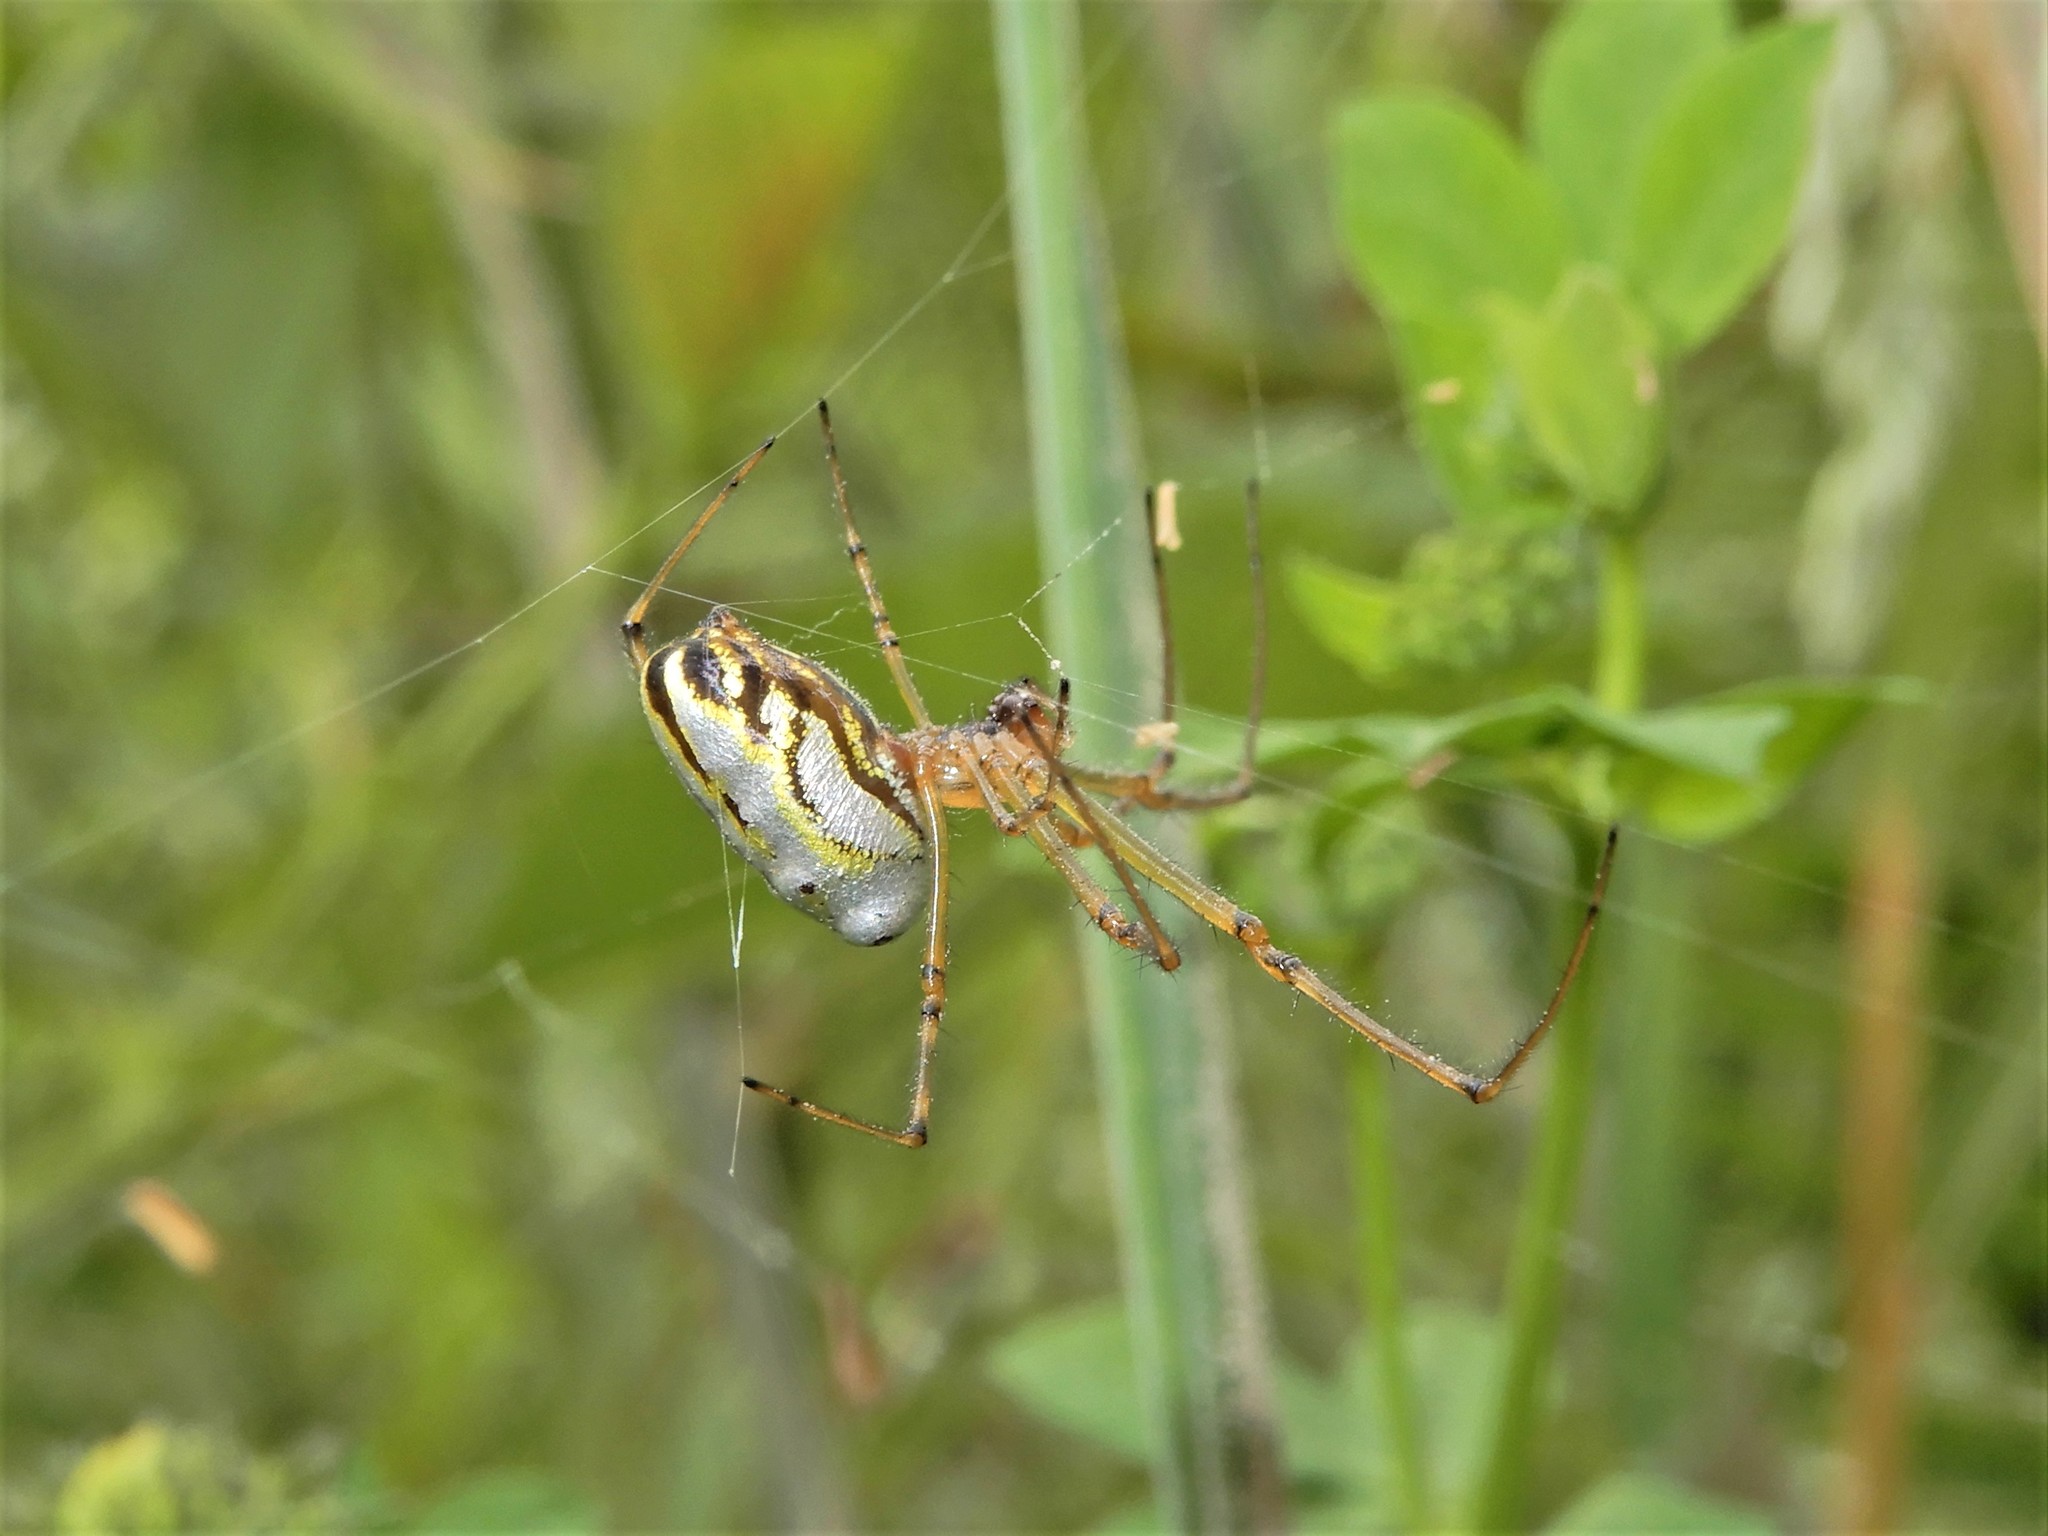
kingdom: Animalia
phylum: Arthropoda
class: Arachnida
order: Araneae
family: Tetragnathidae
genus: Leucauge
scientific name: Leucauge dromedaria
